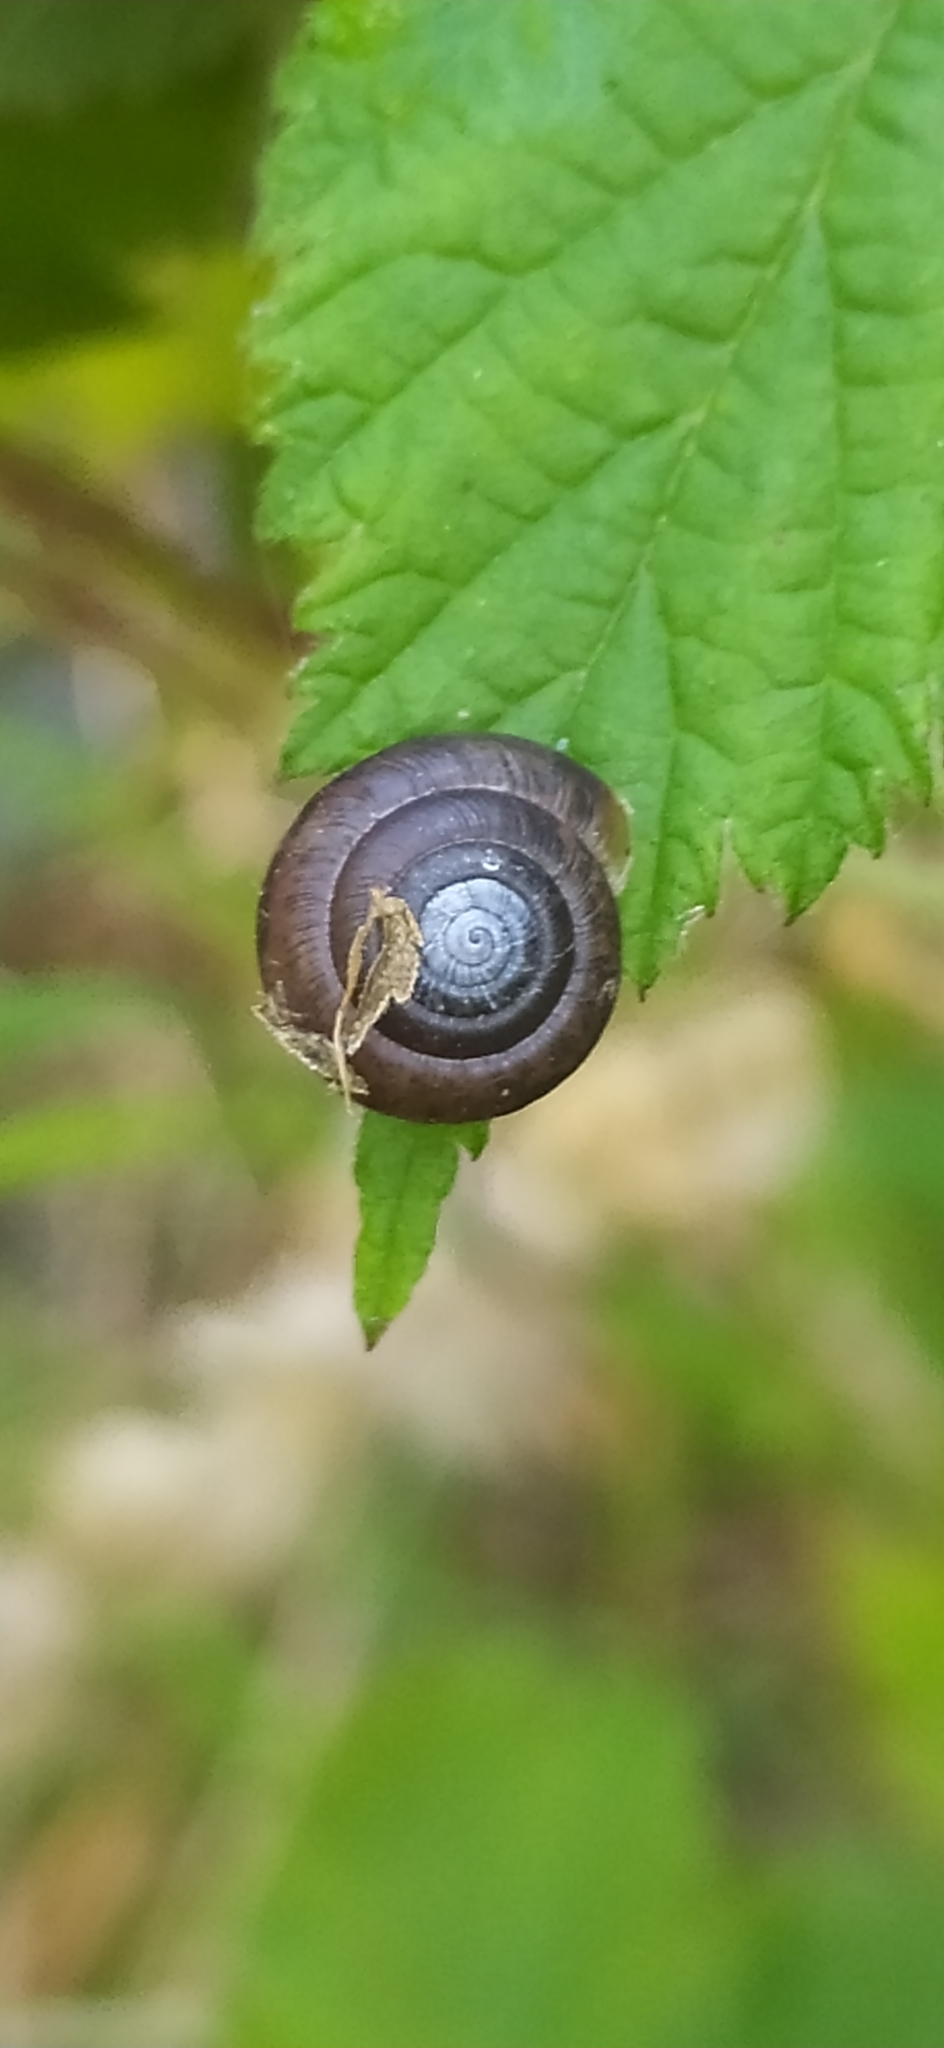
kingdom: Animalia
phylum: Mollusca
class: Gastropoda
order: Stylommatophora
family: Hygromiidae
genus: Trochulus
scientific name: Trochulus hispidus
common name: Hairy snail
